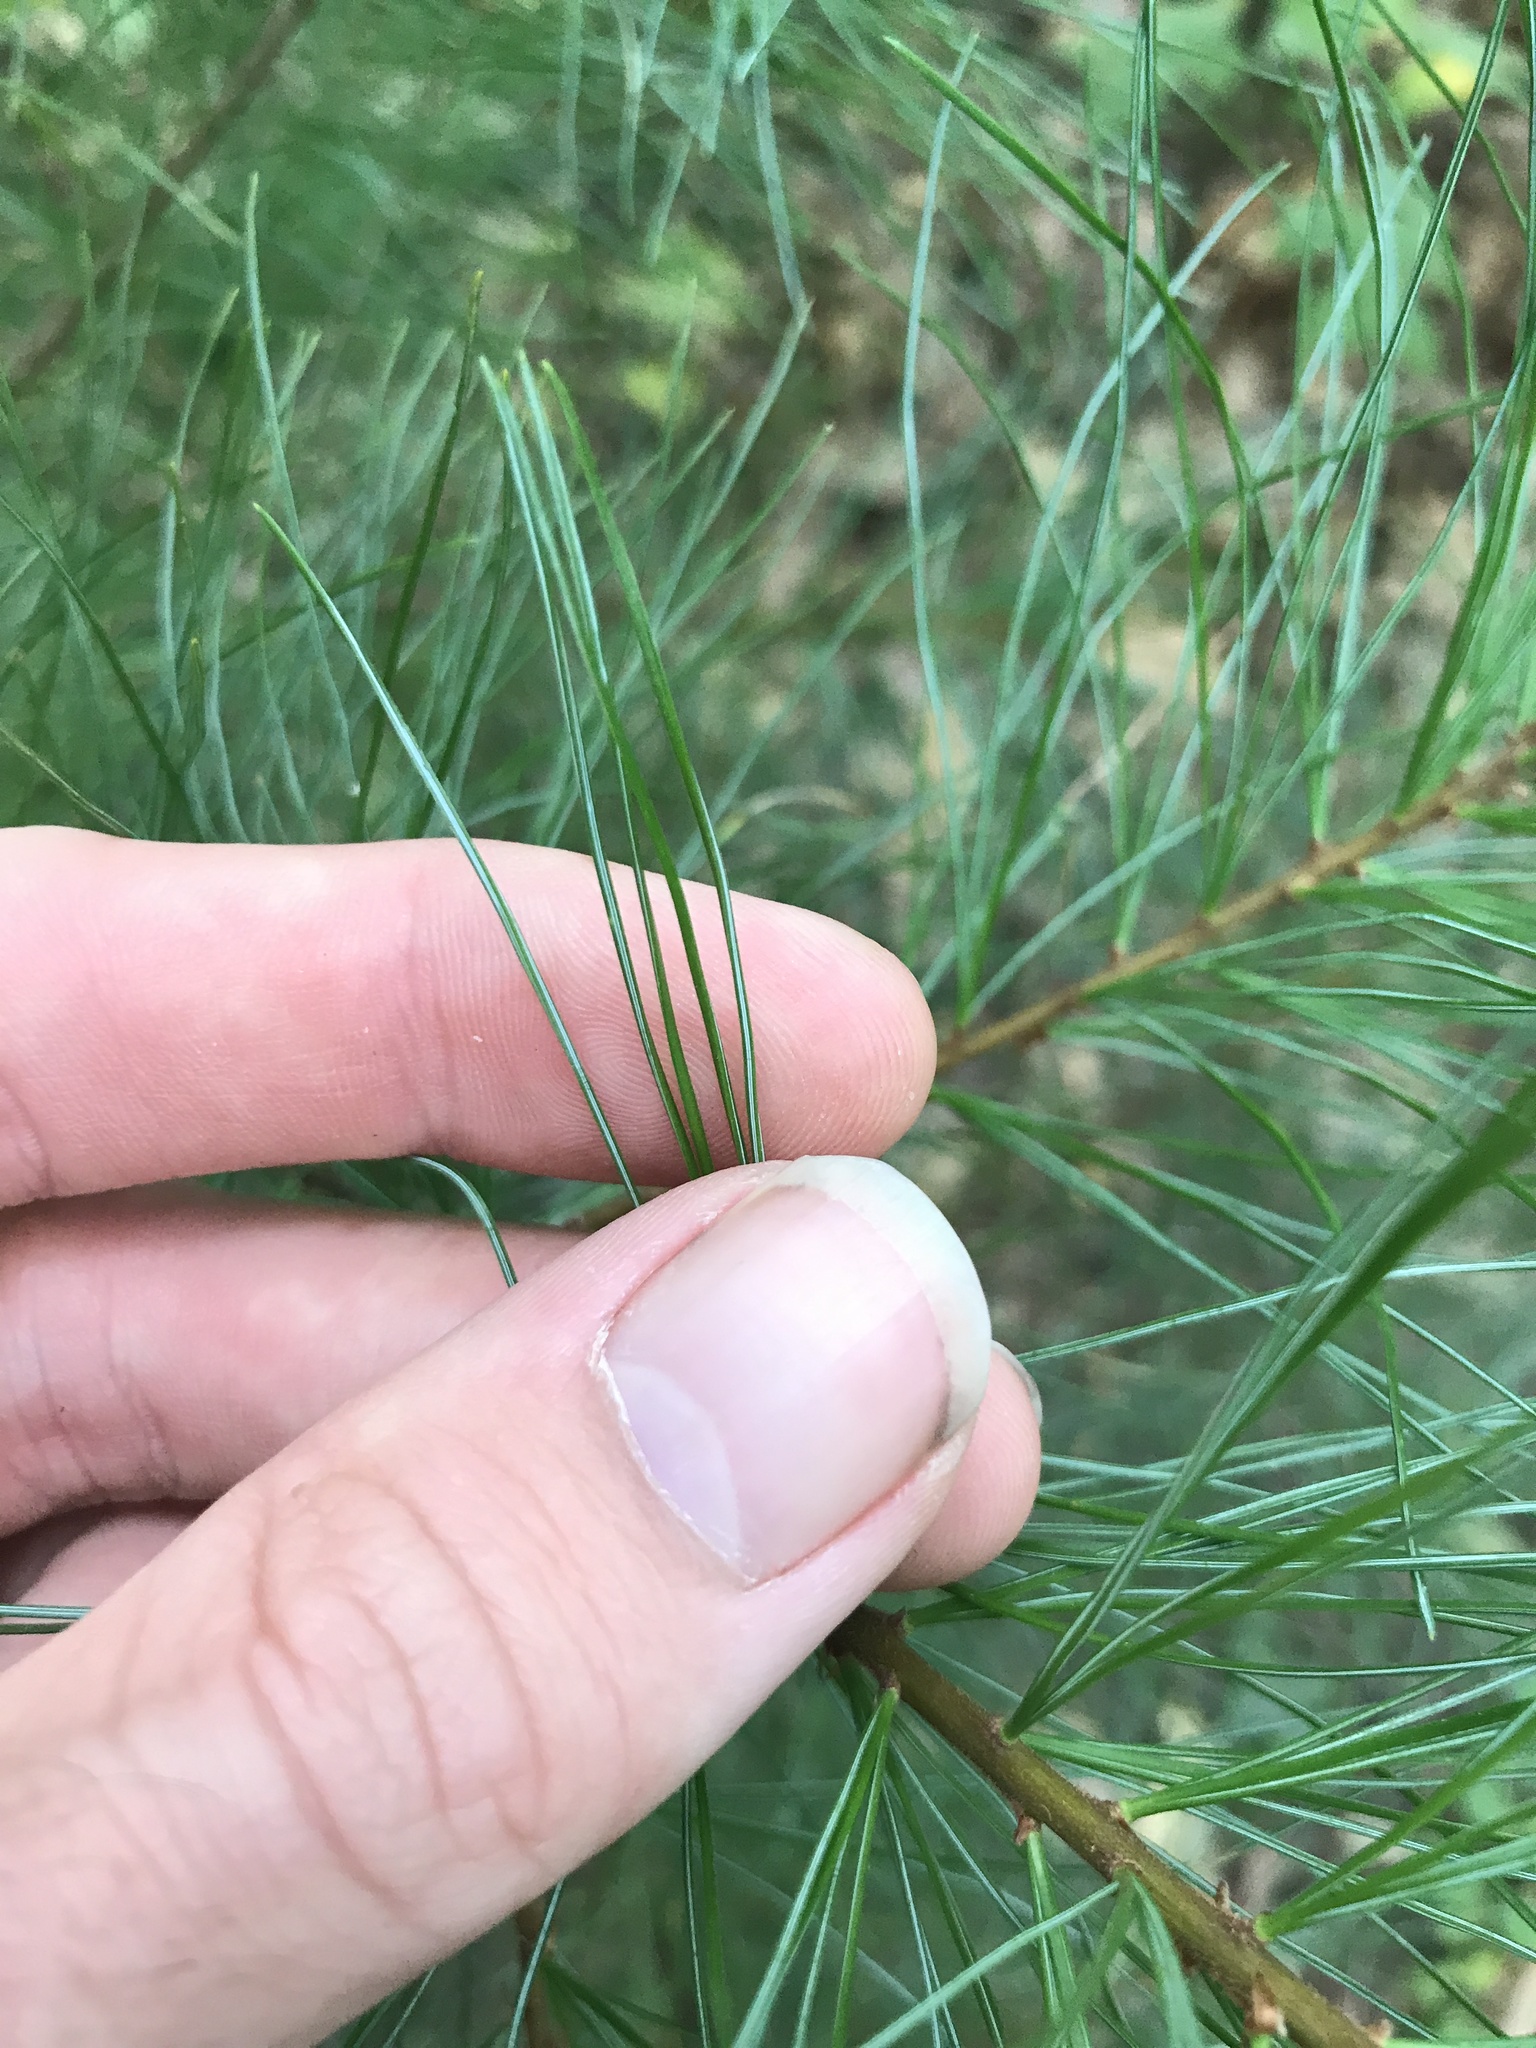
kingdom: Plantae
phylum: Tracheophyta
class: Pinopsida
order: Pinales
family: Pinaceae
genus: Pinus
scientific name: Pinus strobus
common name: Weymouth pine
